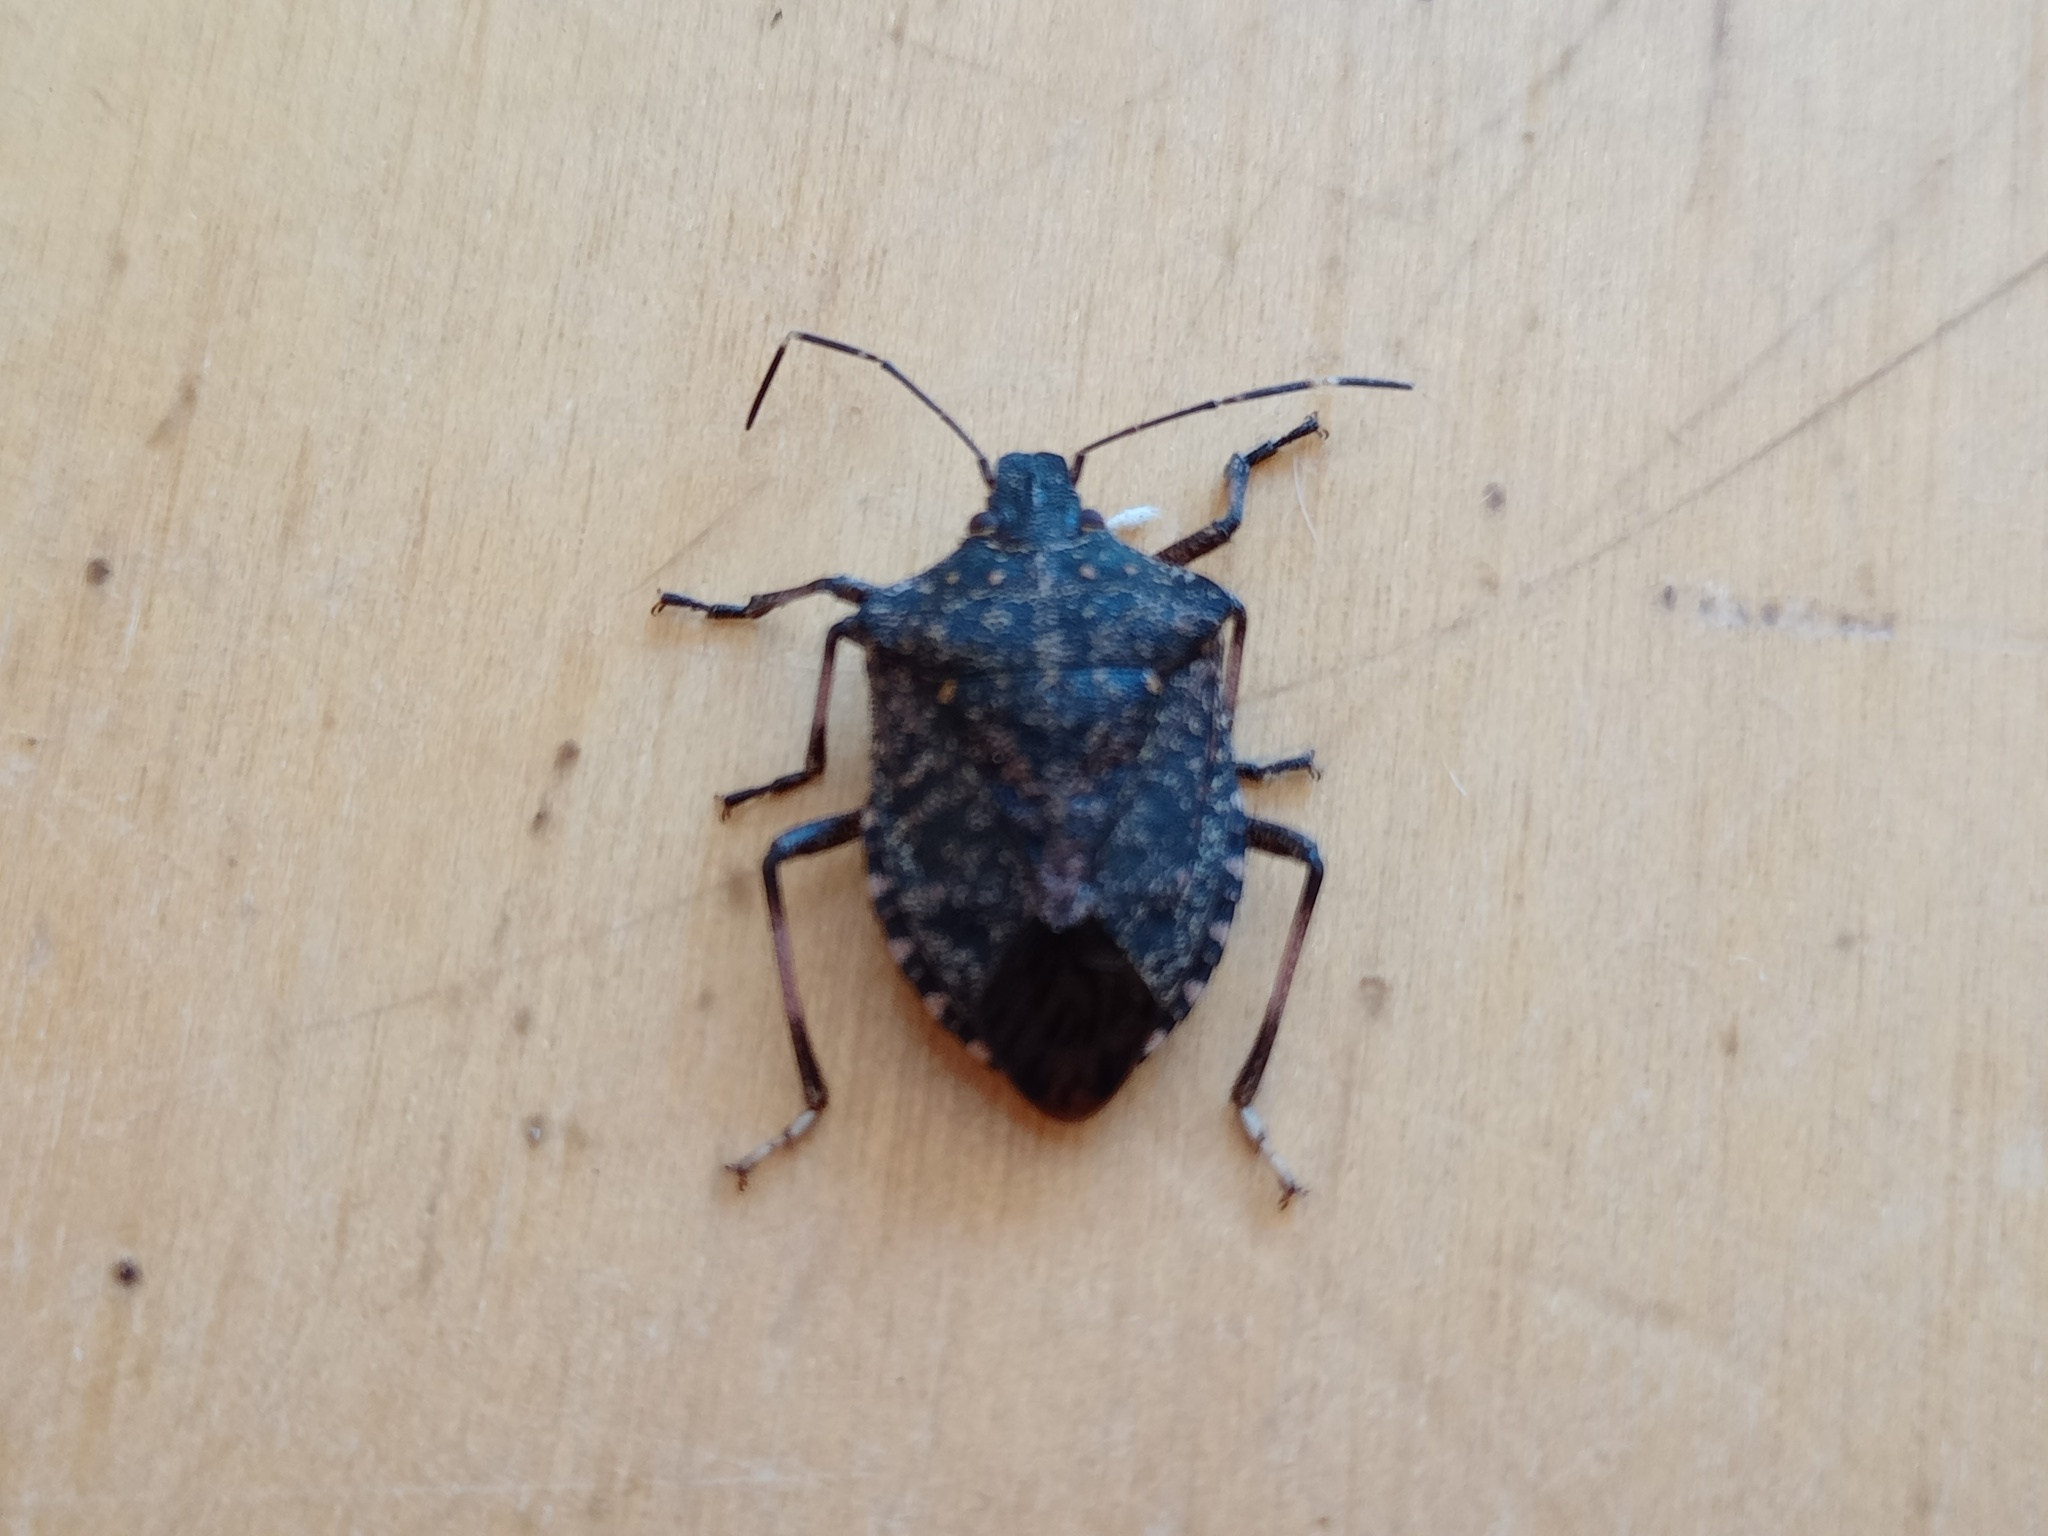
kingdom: Animalia
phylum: Arthropoda
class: Insecta
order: Hemiptera
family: Pentatomidae
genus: Halyomorpha
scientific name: Halyomorpha halys
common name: Brown marmorated stink bug
